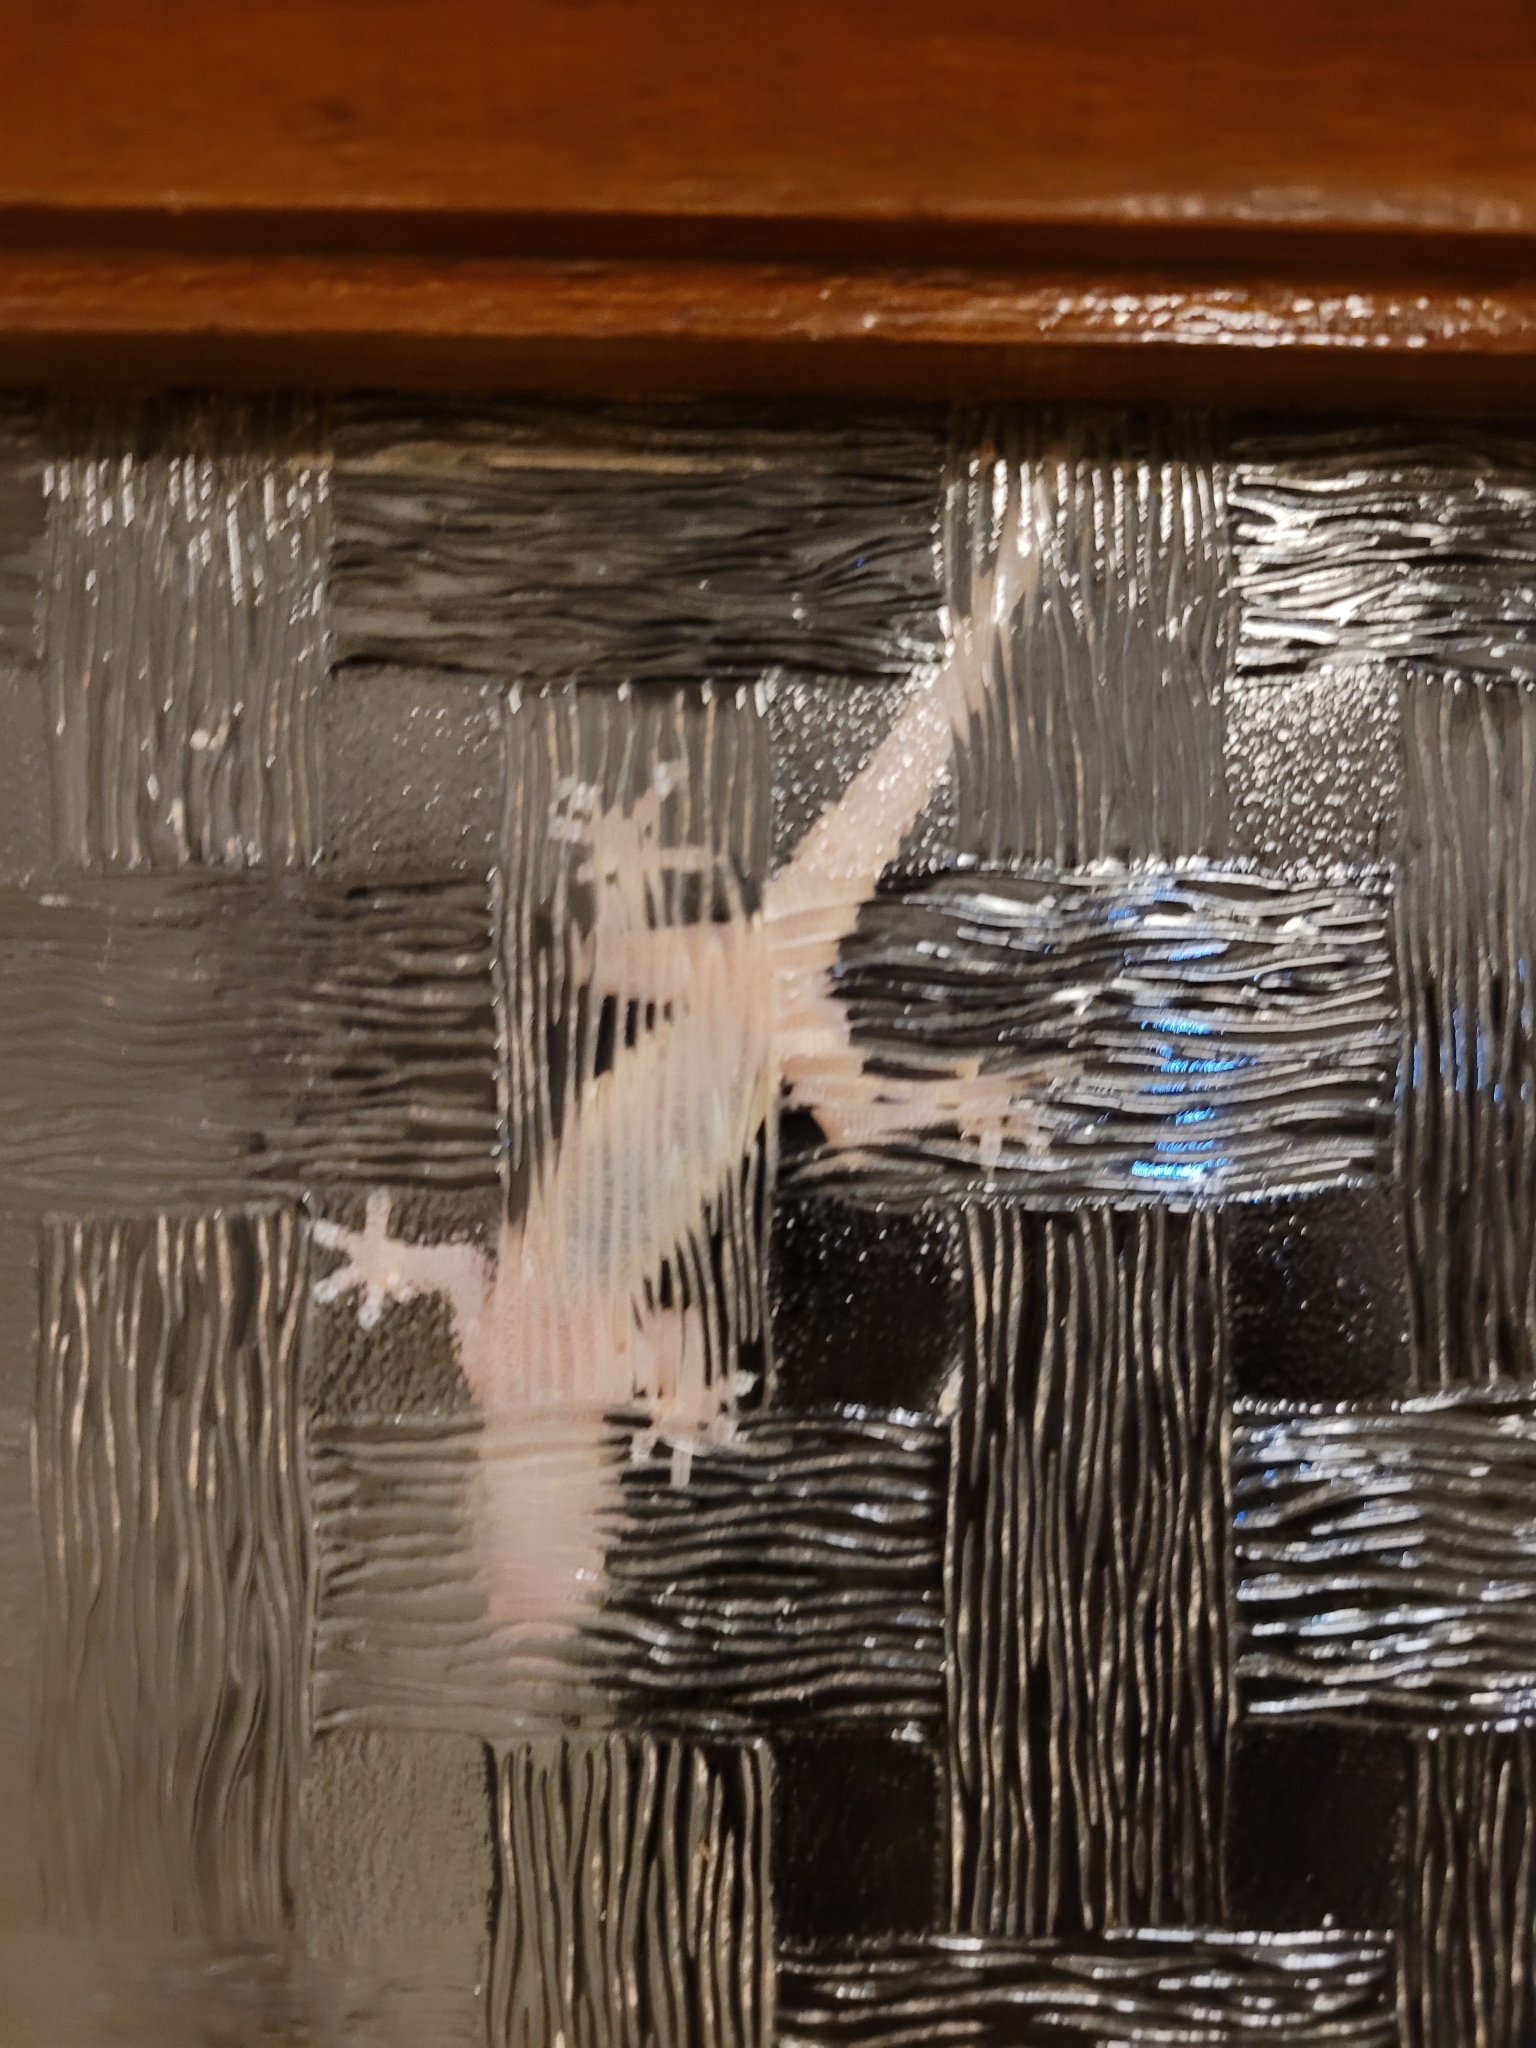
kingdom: Animalia
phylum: Chordata
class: Squamata
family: Gekkonidae
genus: Hemidactylus
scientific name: Hemidactylus mabouia
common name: House gecko
